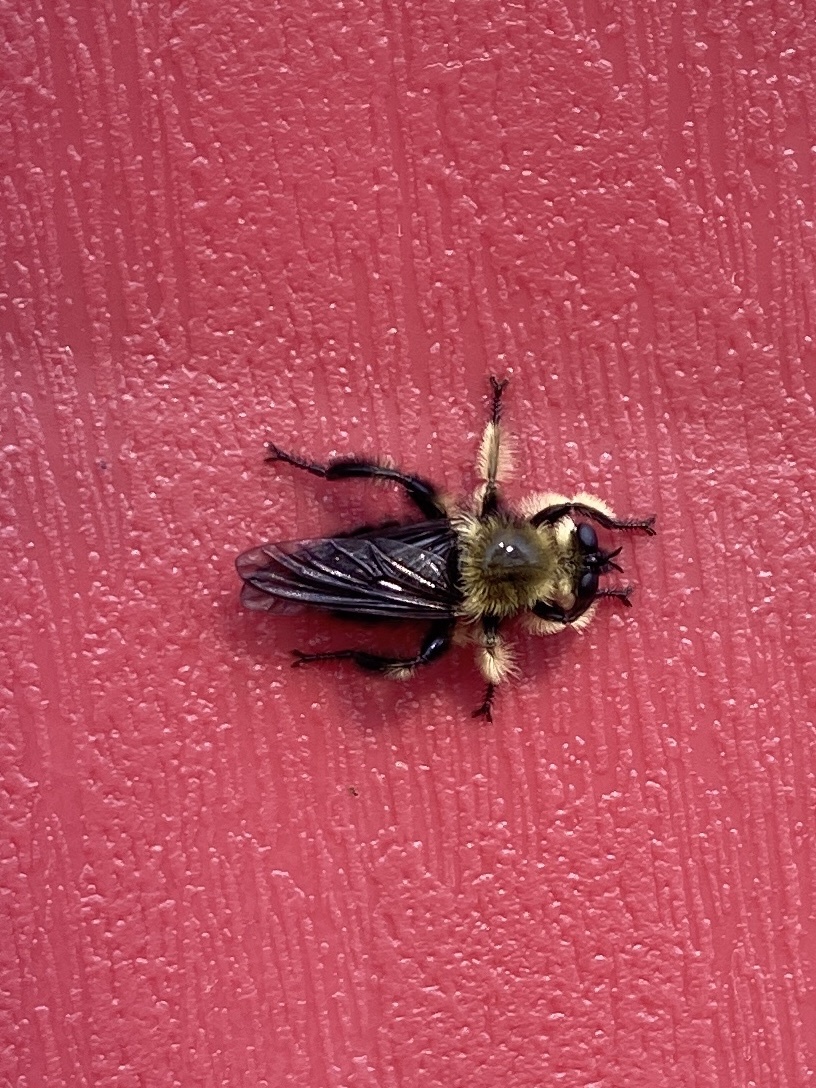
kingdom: Animalia
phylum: Arthropoda
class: Insecta
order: Diptera
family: Asilidae
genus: Laphria
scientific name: Laphria affinis
